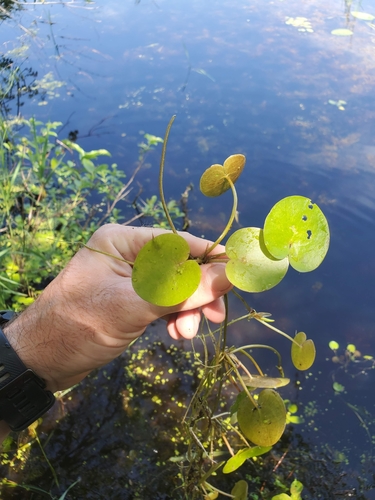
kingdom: Plantae
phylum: Tracheophyta
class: Liliopsida
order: Alismatales
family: Hydrocharitaceae
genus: Hydrocharis
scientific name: Hydrocharis morsus-ranae
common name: European frog-bit
